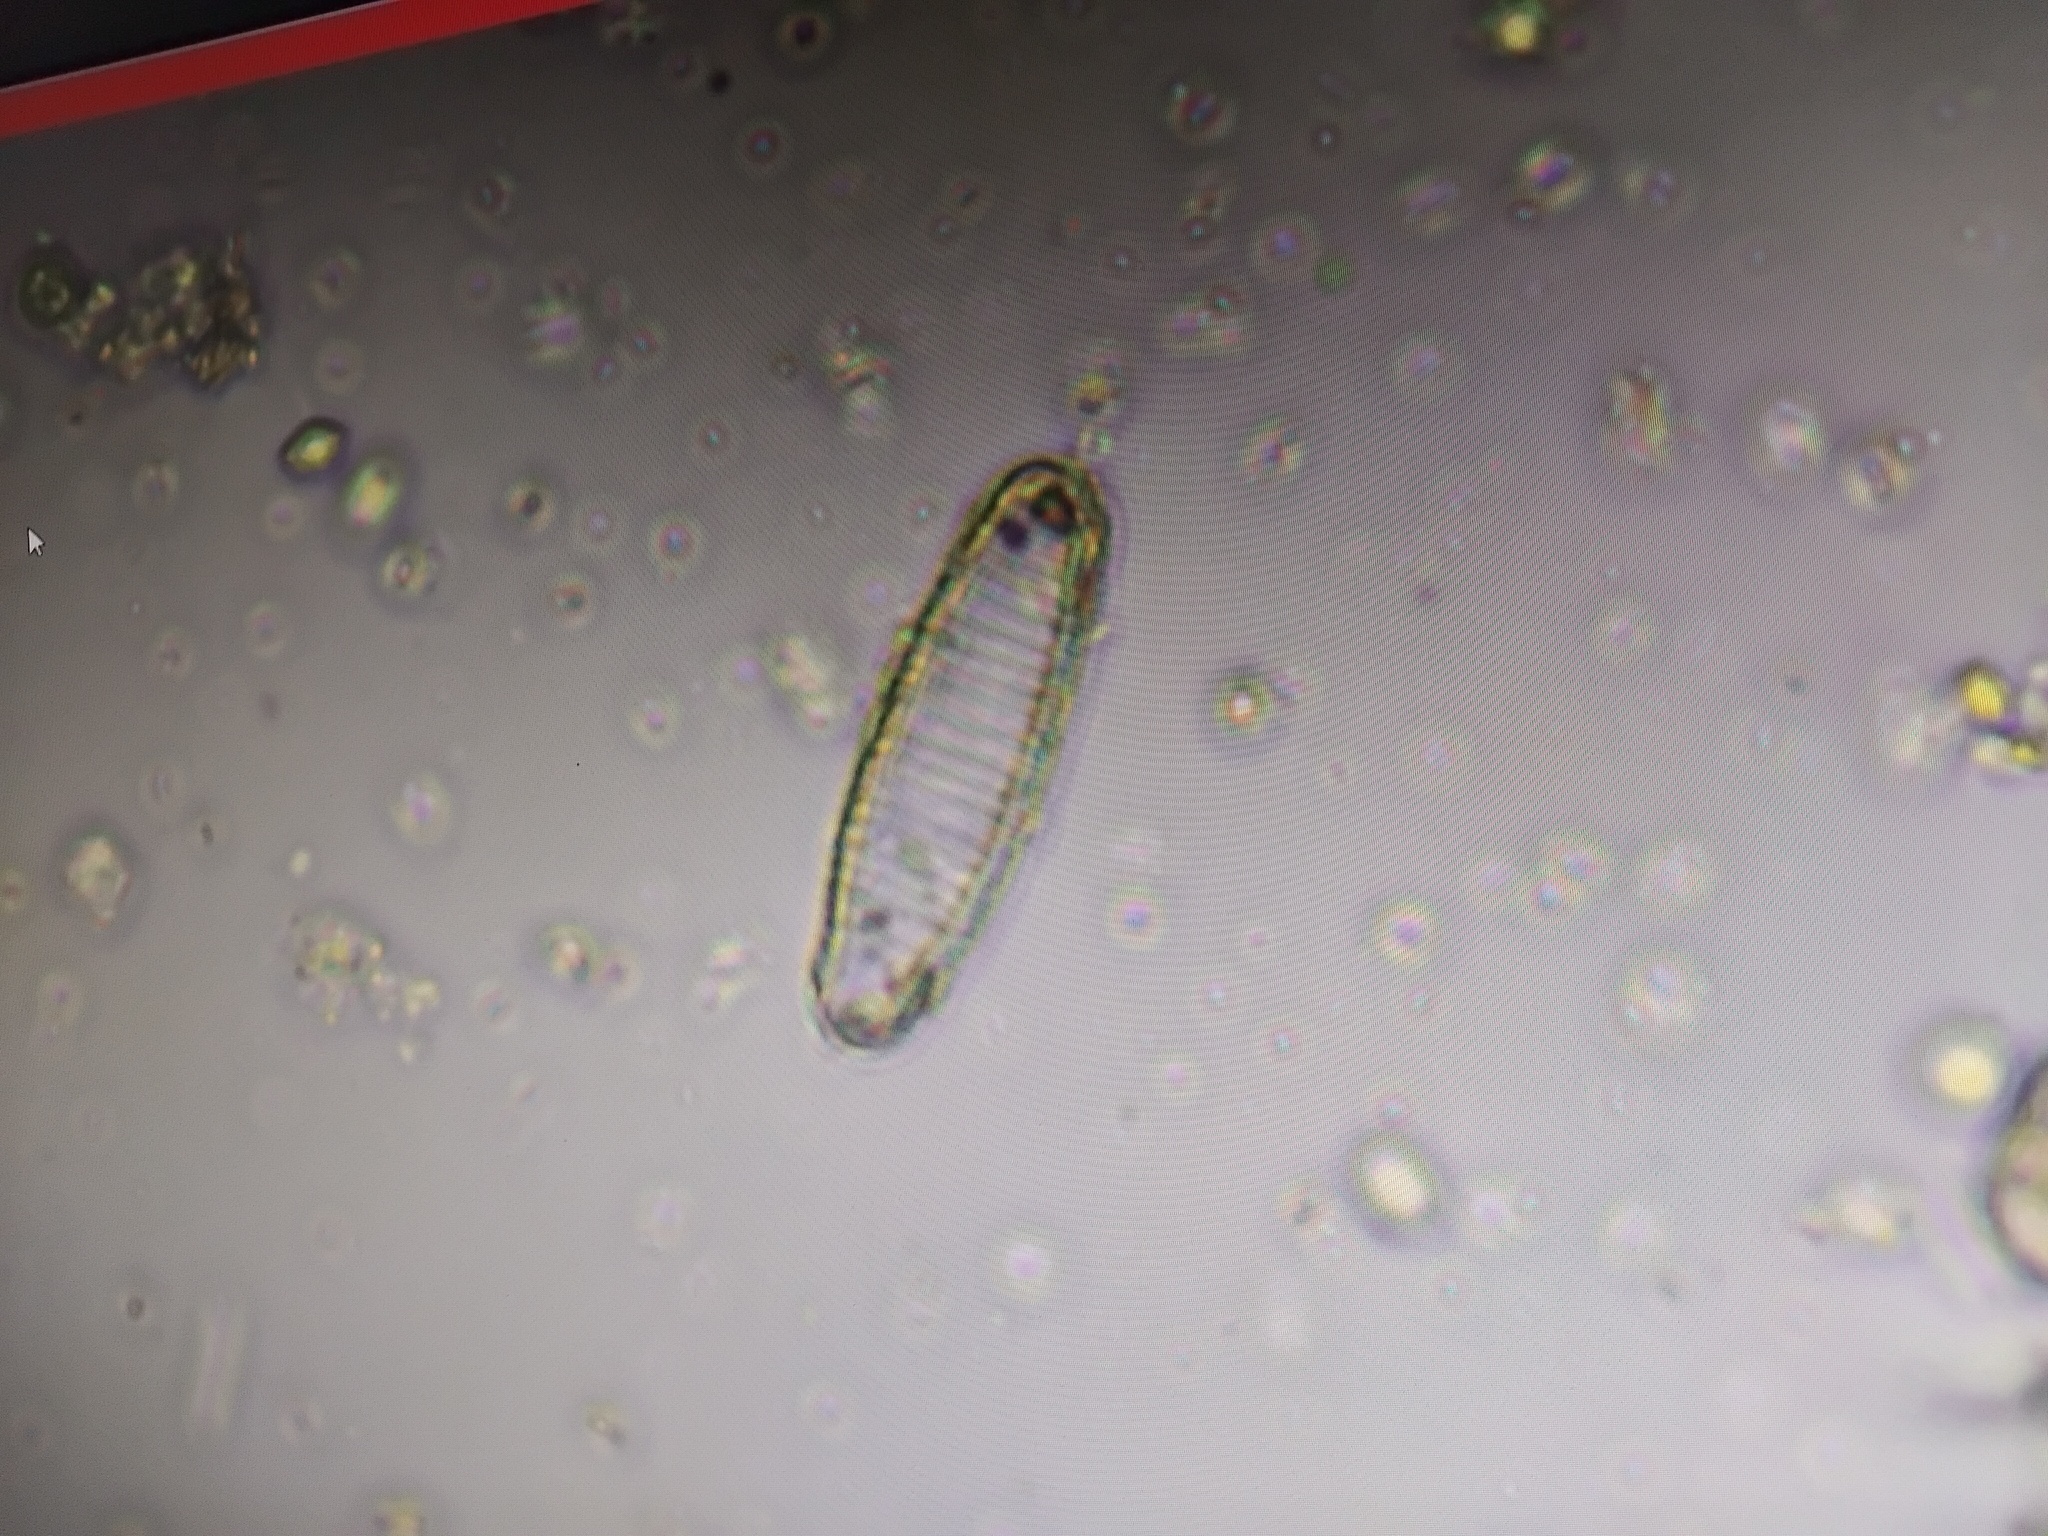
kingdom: Chromista
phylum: Ochrophyta
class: Bacillariophyceae
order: Fragilariales
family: Fragilariaceae
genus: Diatoma
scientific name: Diatoma vulgaris
